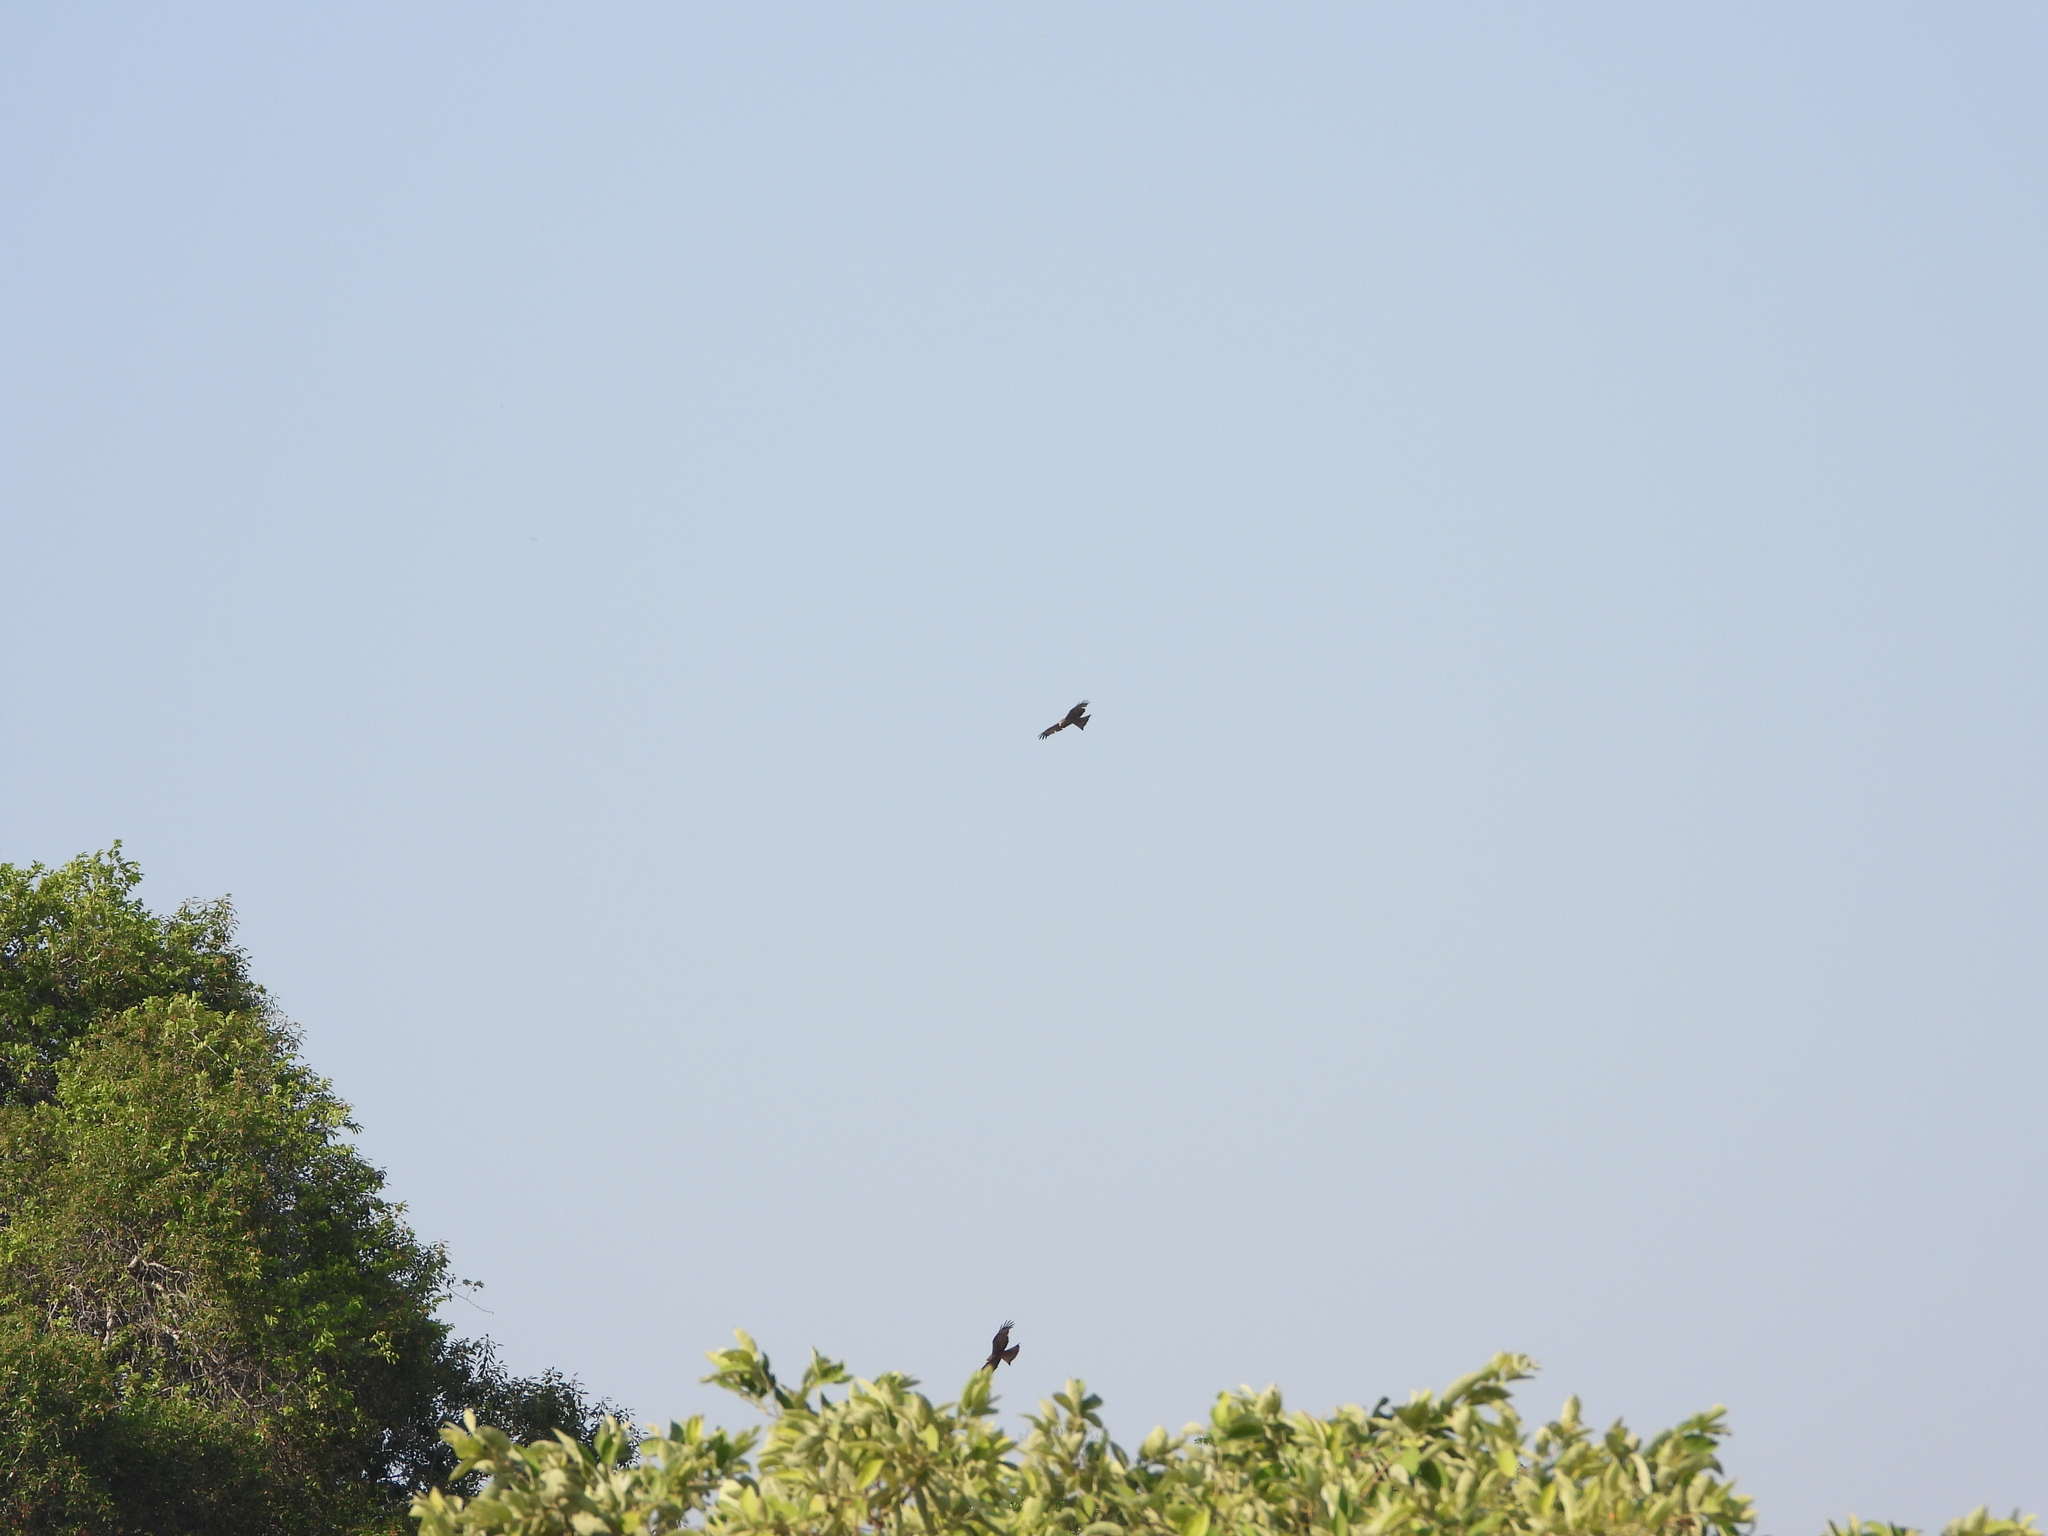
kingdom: Animalia
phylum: Chordata
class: Aves
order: Accipitriformes
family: Accipitridae
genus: Milvus
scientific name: Milvus migrans
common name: Black kite
